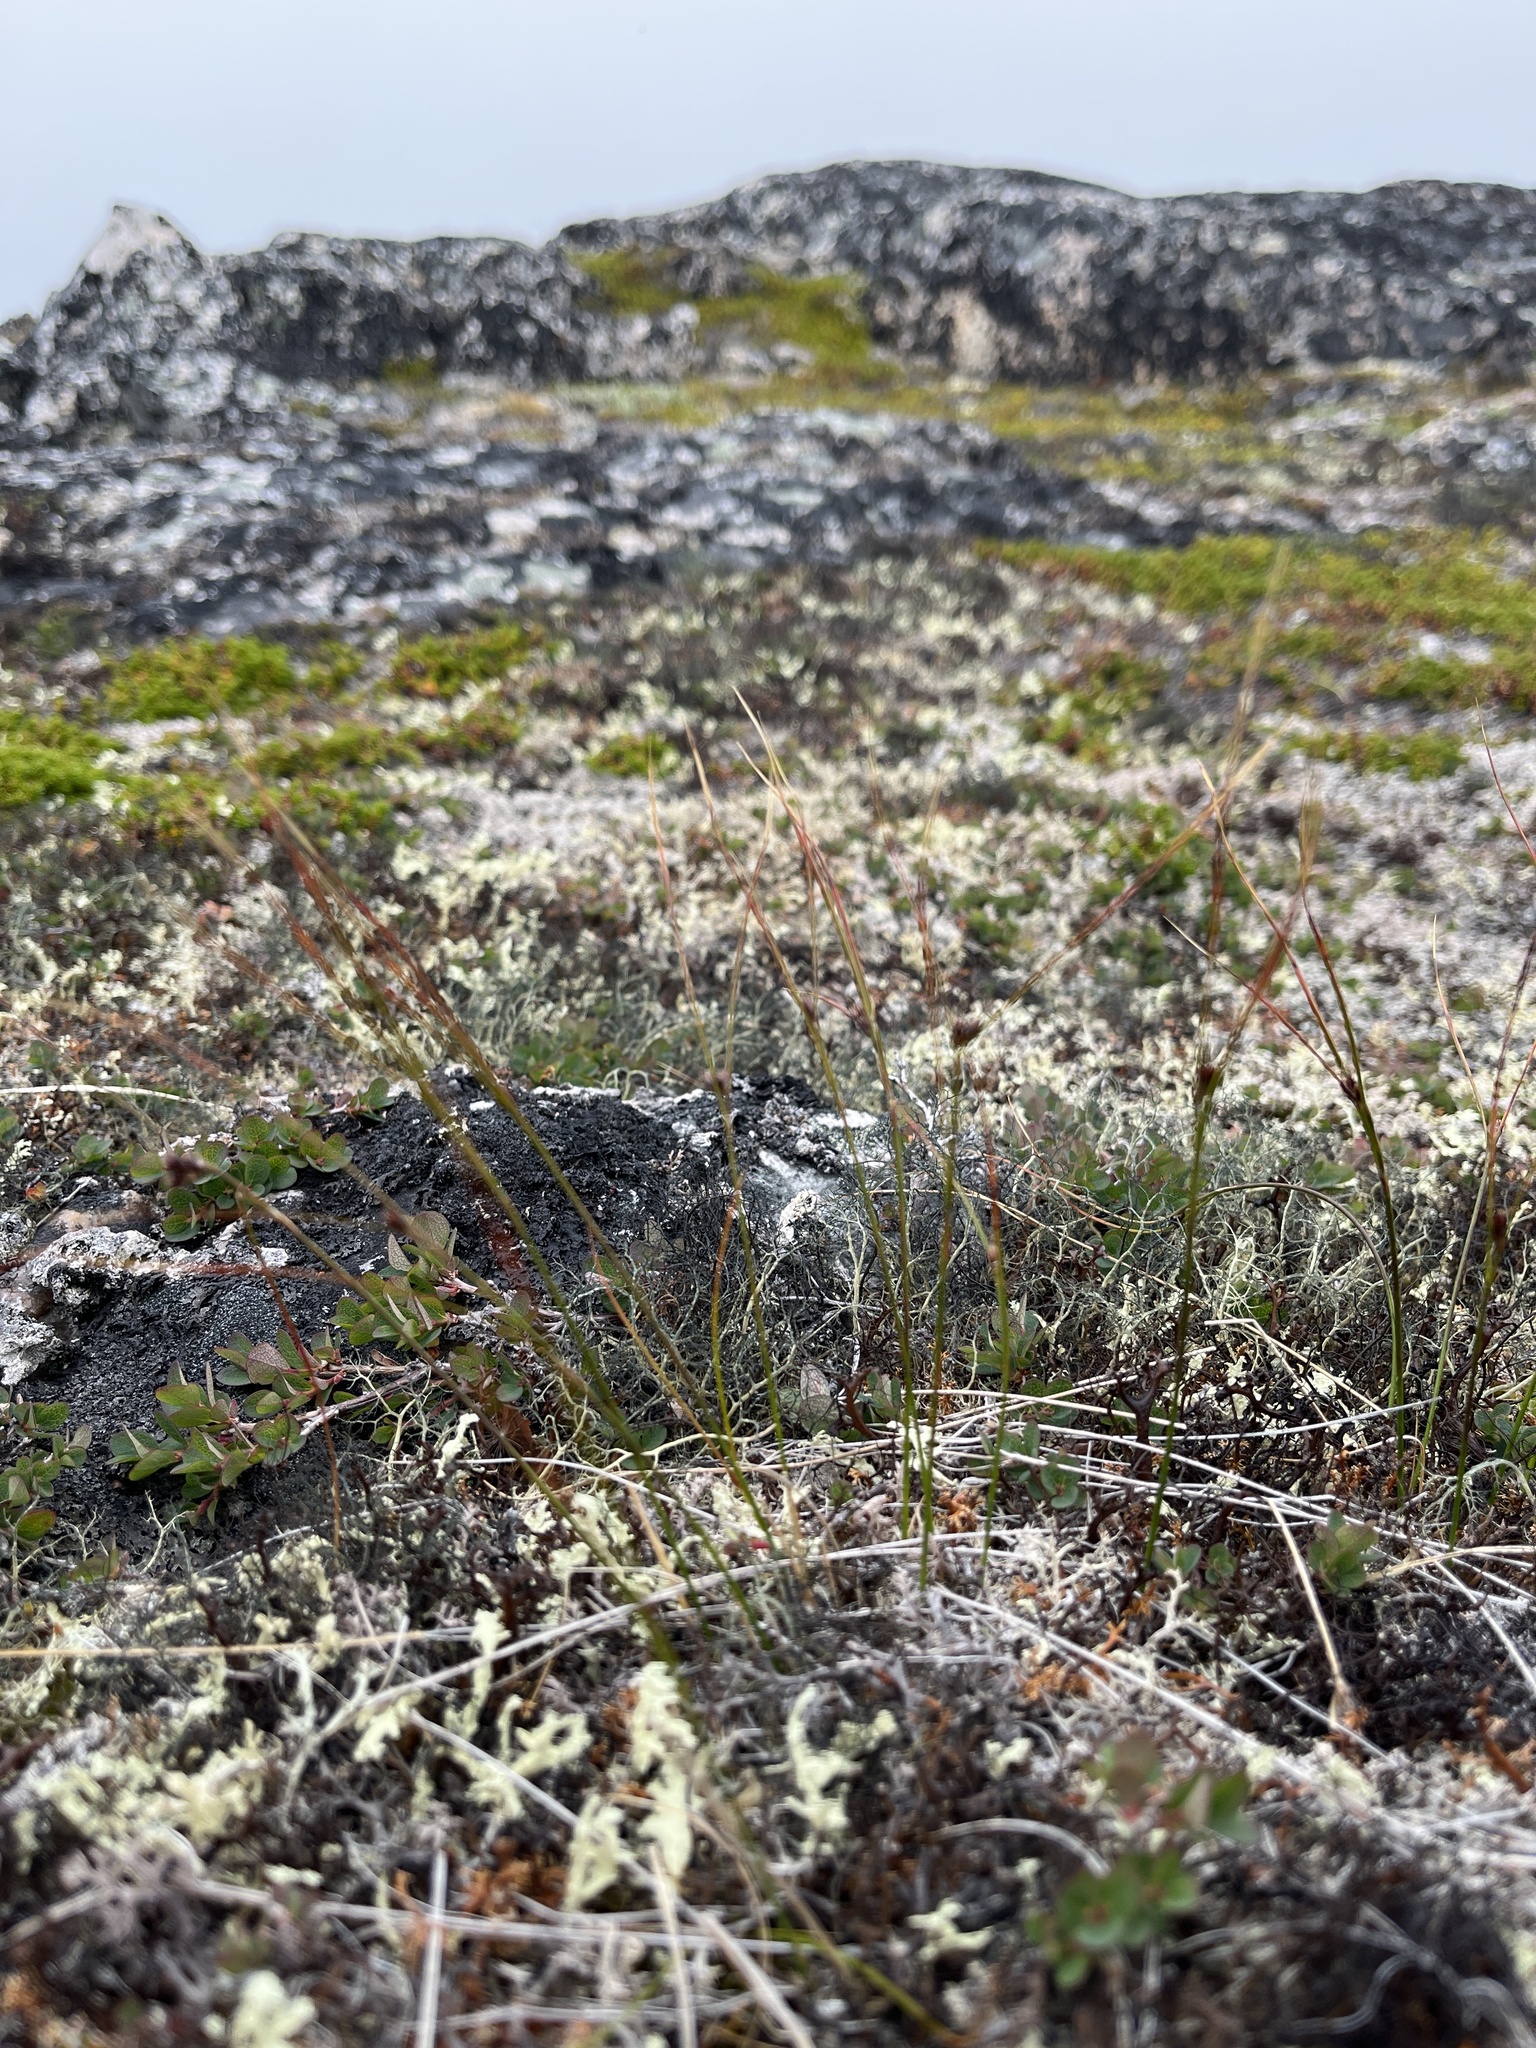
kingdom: Plantae
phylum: Tracheophyta
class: Liliopsida
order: Poales
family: Juncaceae
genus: Oreojuncus
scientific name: Oreojuncus trifidus
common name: Highland rush
